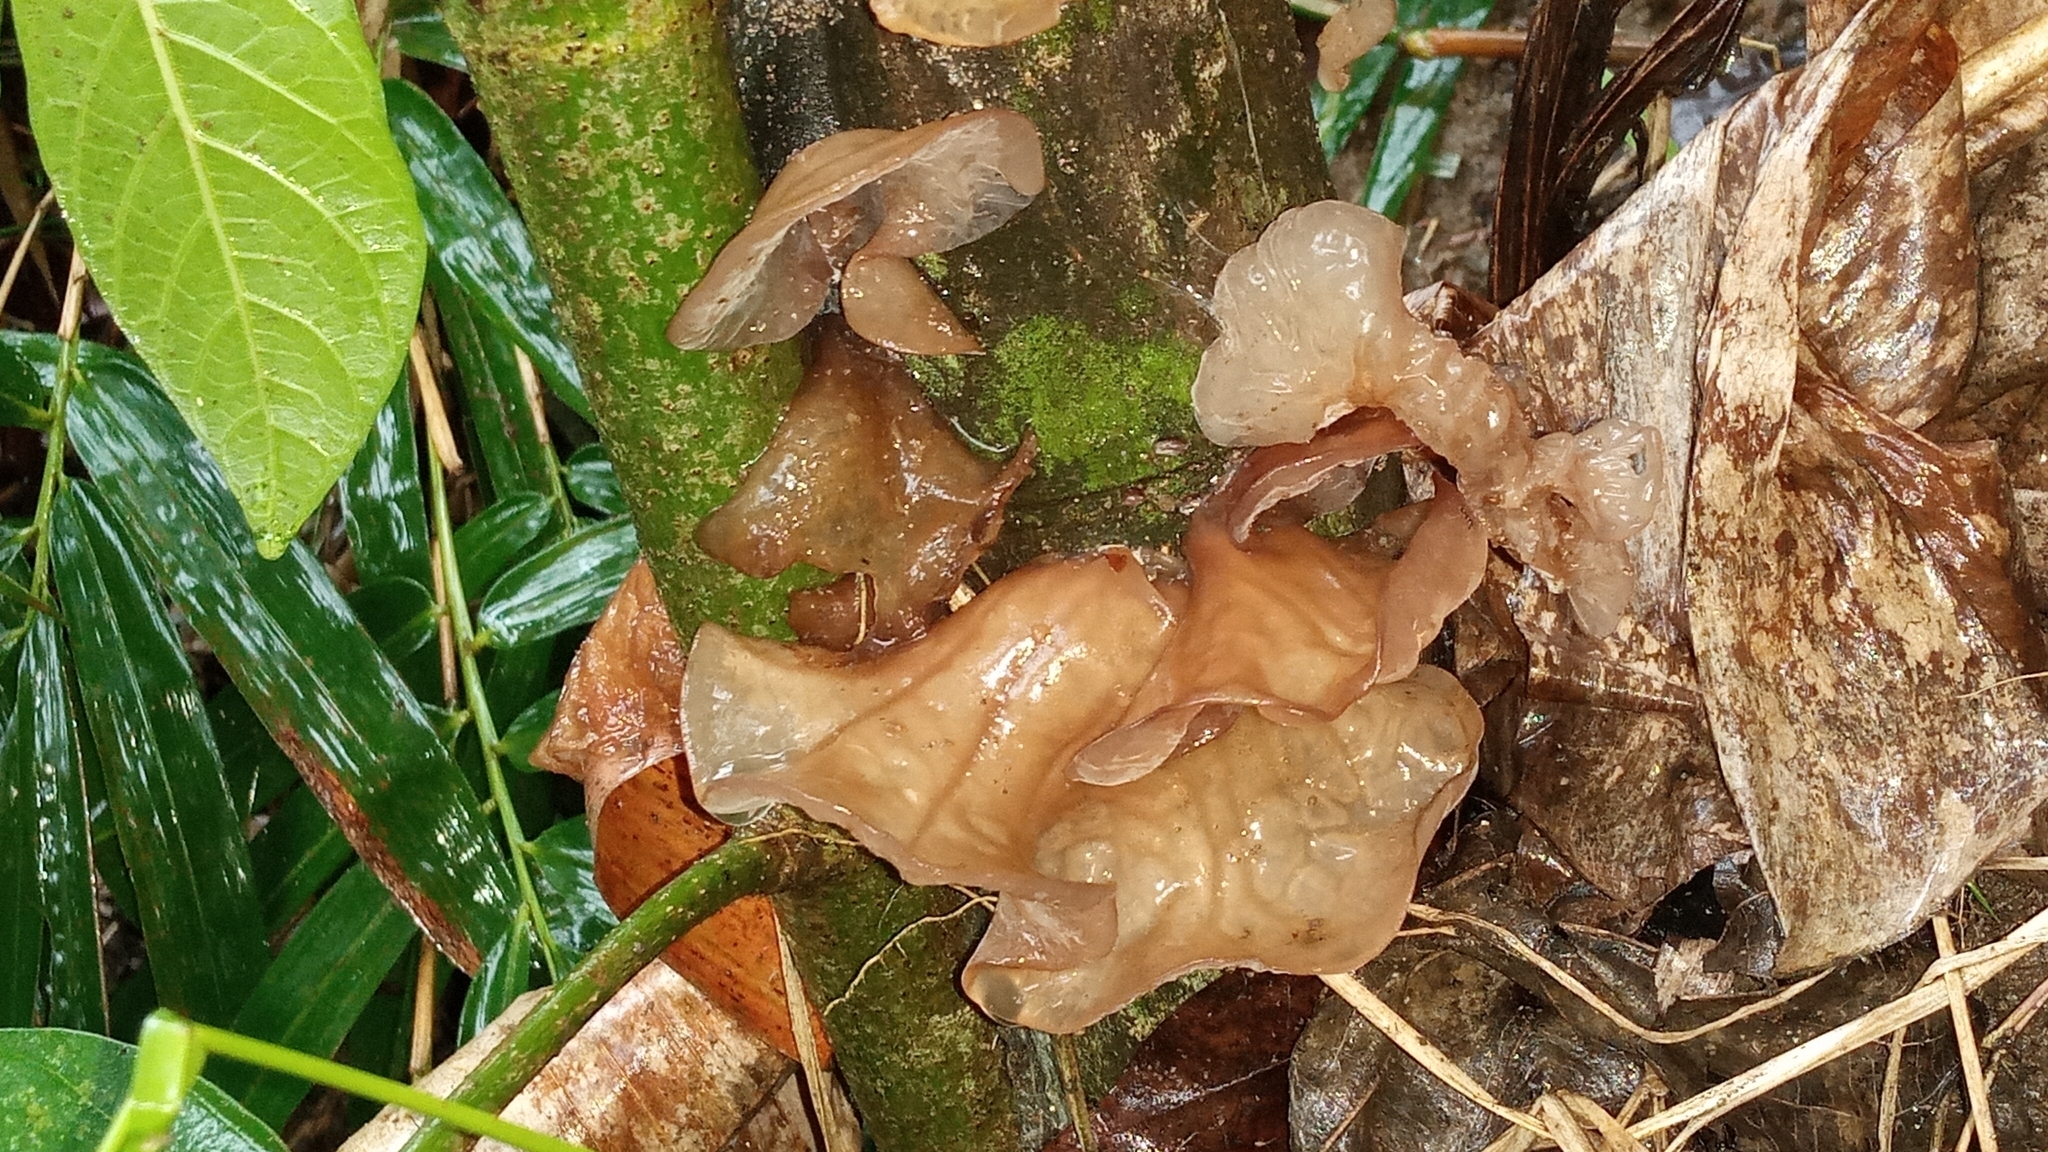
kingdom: Fungi
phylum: Basidiomycota
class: Agaricomycetes
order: Auriculariales
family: Auriculariaceae
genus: Auricularia
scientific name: Auricularia heimuer
